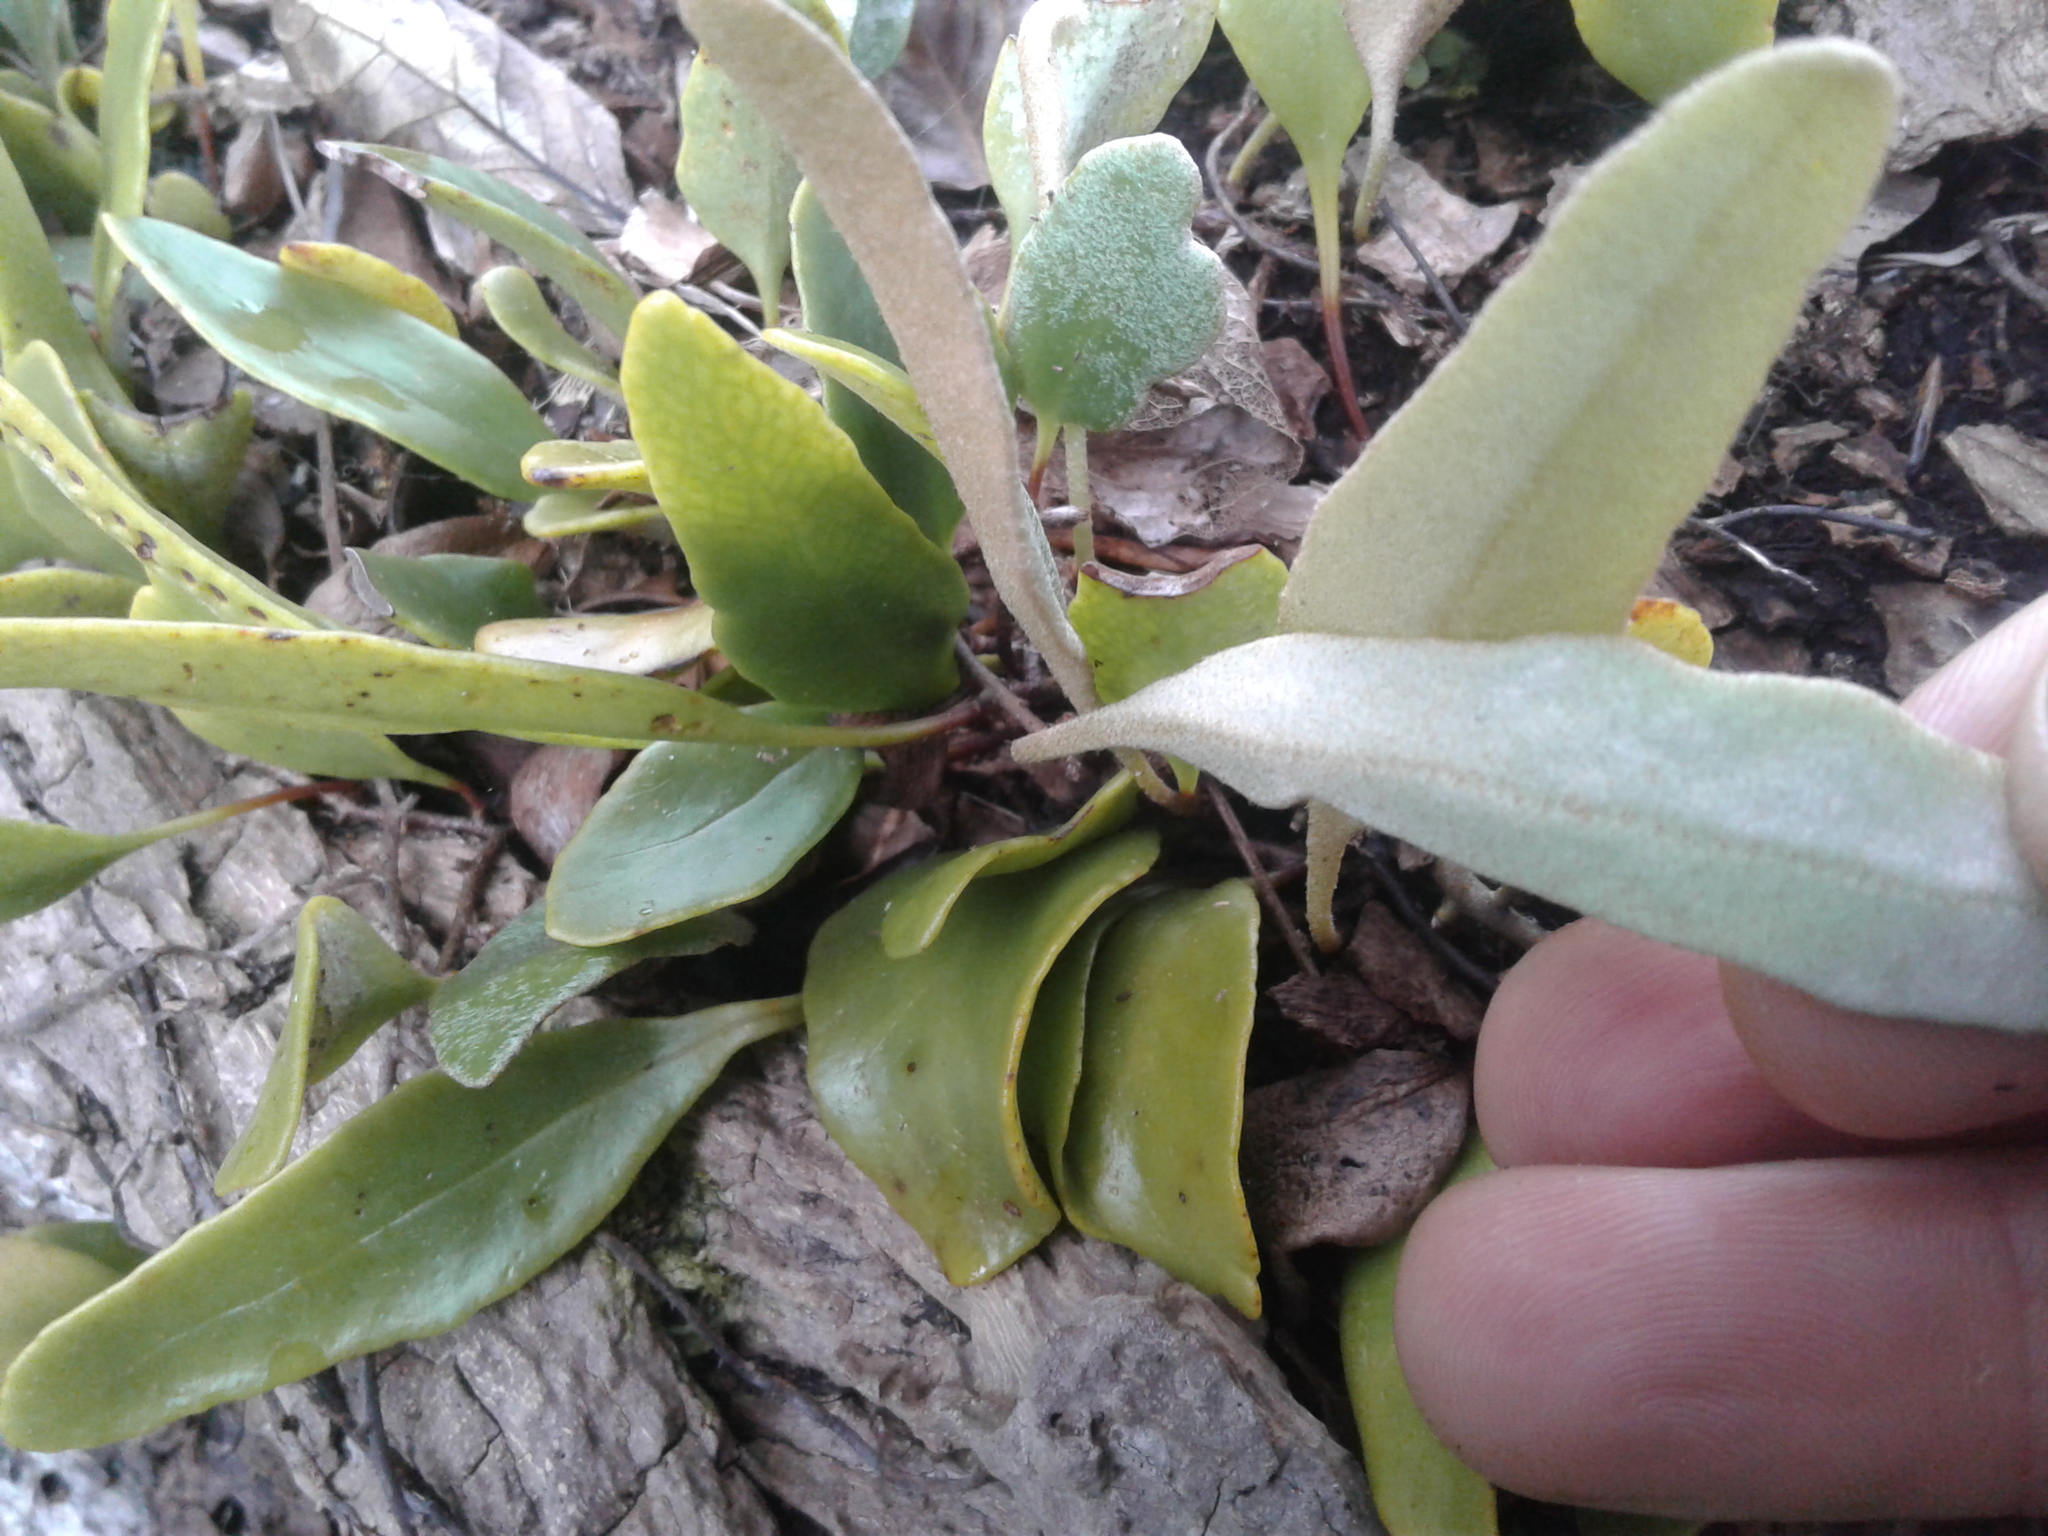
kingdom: Plantae
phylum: Tracheophyta
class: Polypodiopsida
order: Polypodiales
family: Polypodiaceae
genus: Pyrrosia
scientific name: Pyrrosia eleagnifolia
